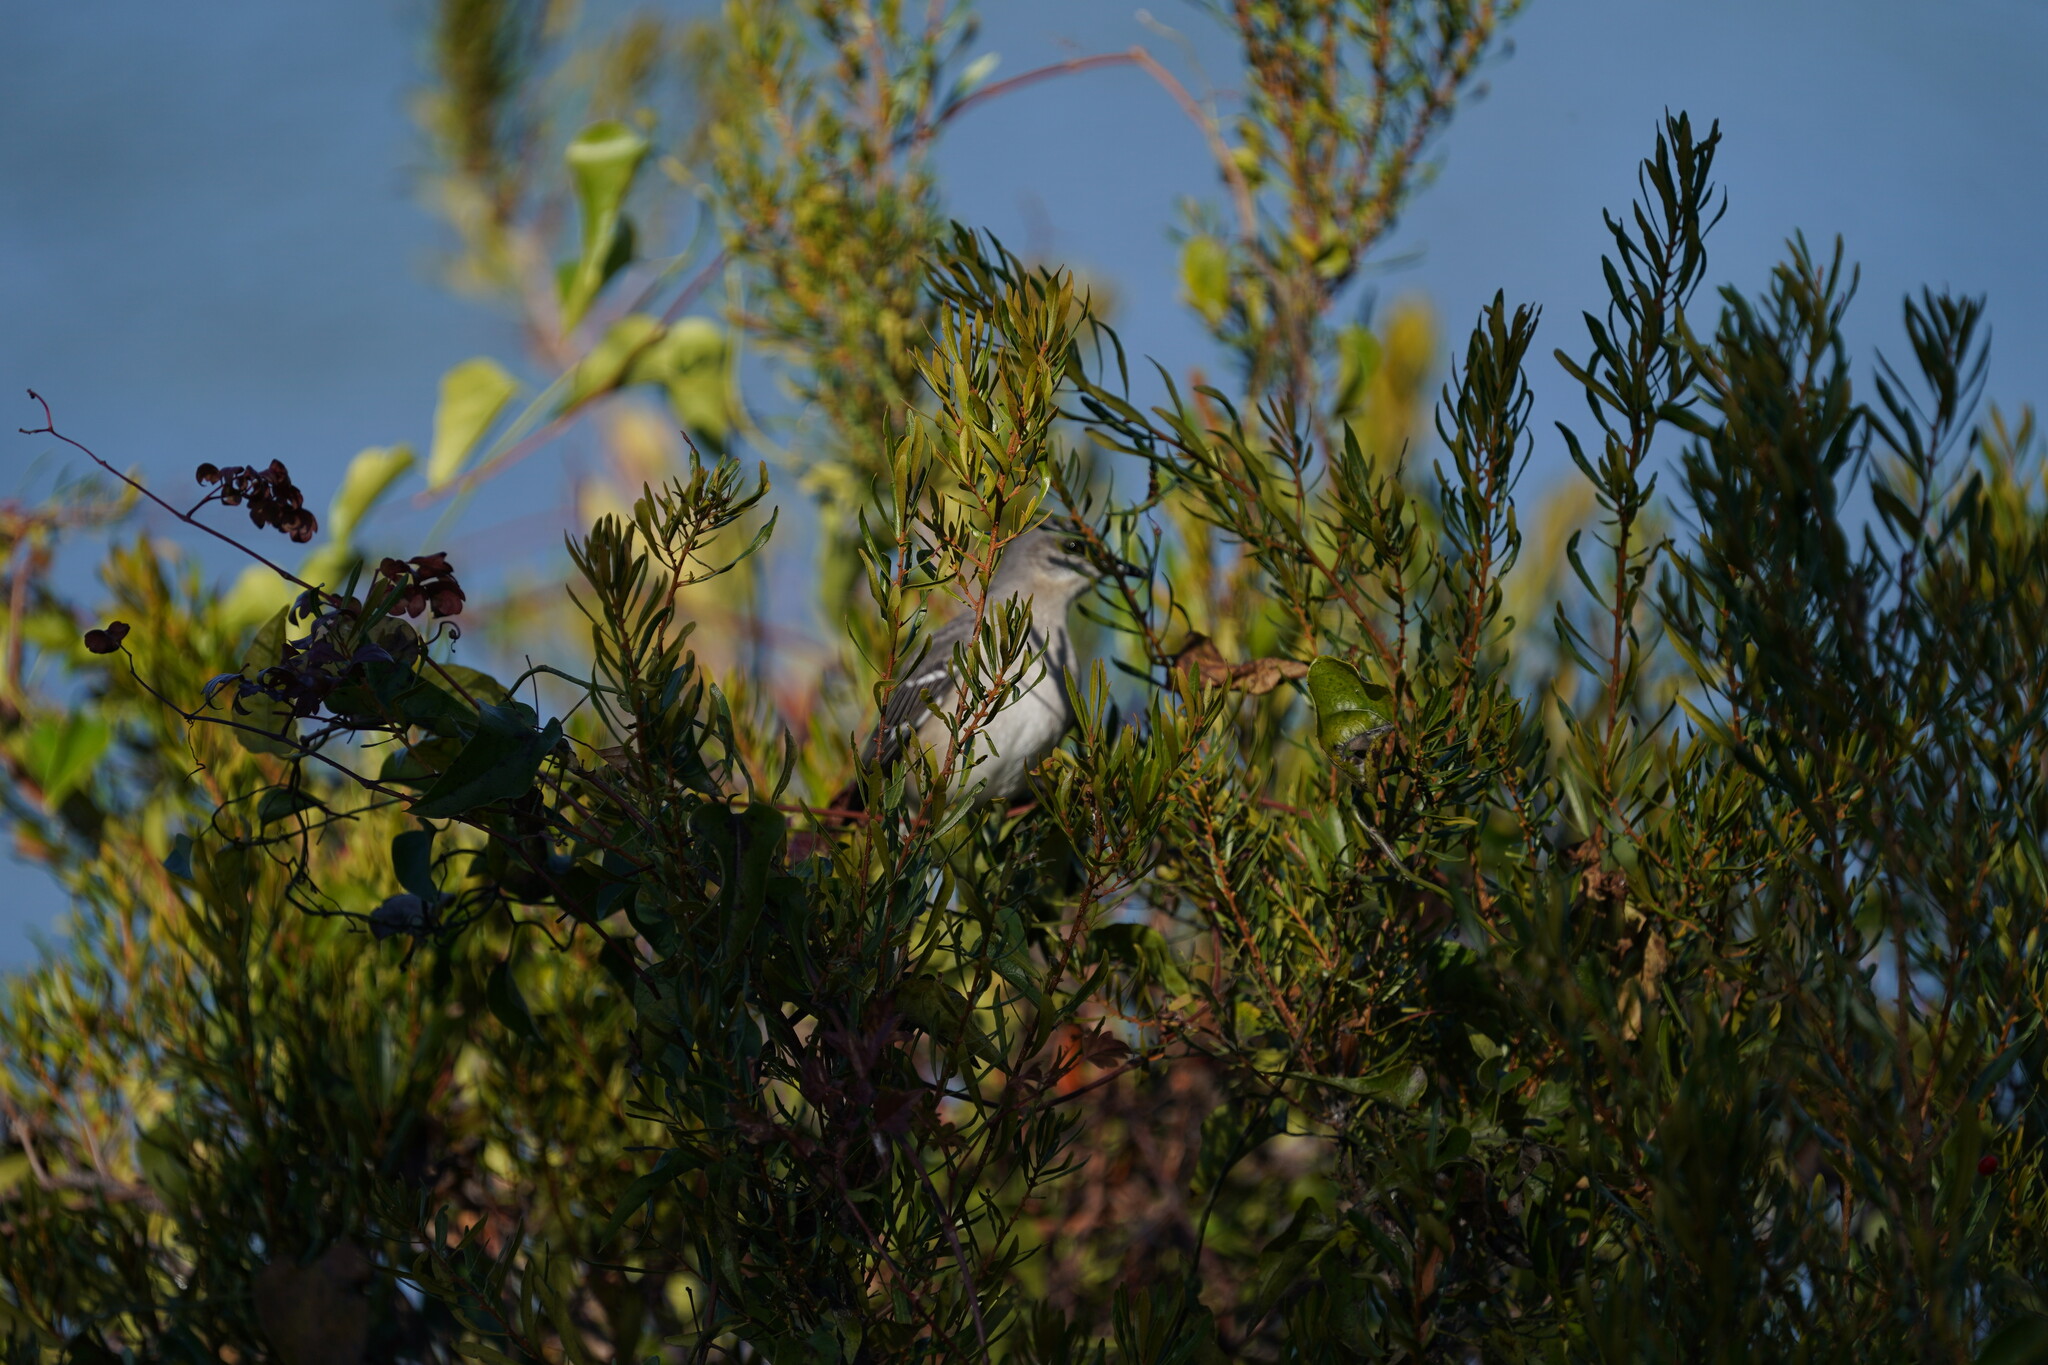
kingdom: Animalia
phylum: Chordata
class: Aves
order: Passeriformes
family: Mimidae
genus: Mimus
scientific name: Mimus polyglottos
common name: Northern mockingbird
